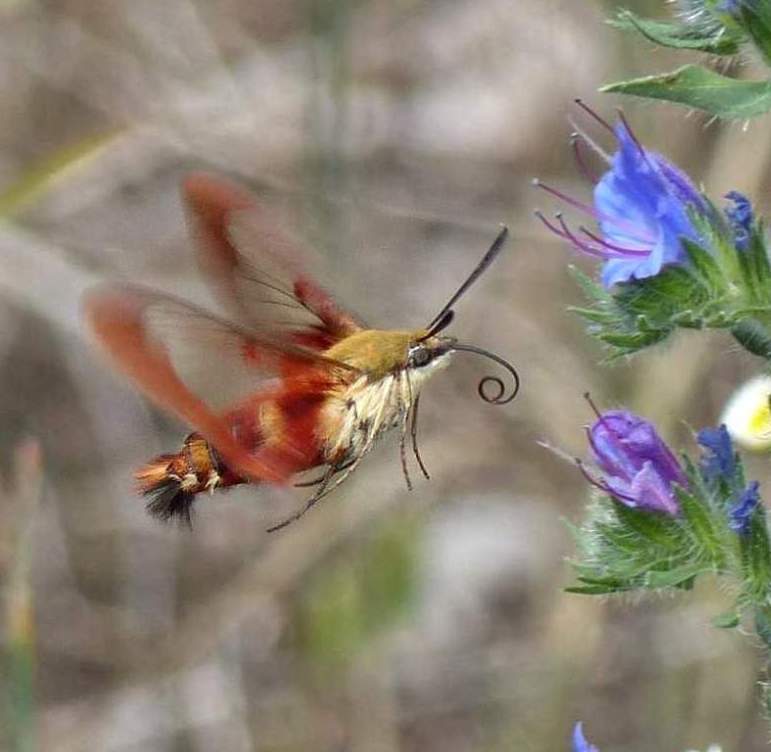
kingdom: Animalia
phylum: Arthropoda
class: Insecta
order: Lepidoptera
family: Sphingidae
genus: Hemaris
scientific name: Hemaris thysbe
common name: Common clear-wing
